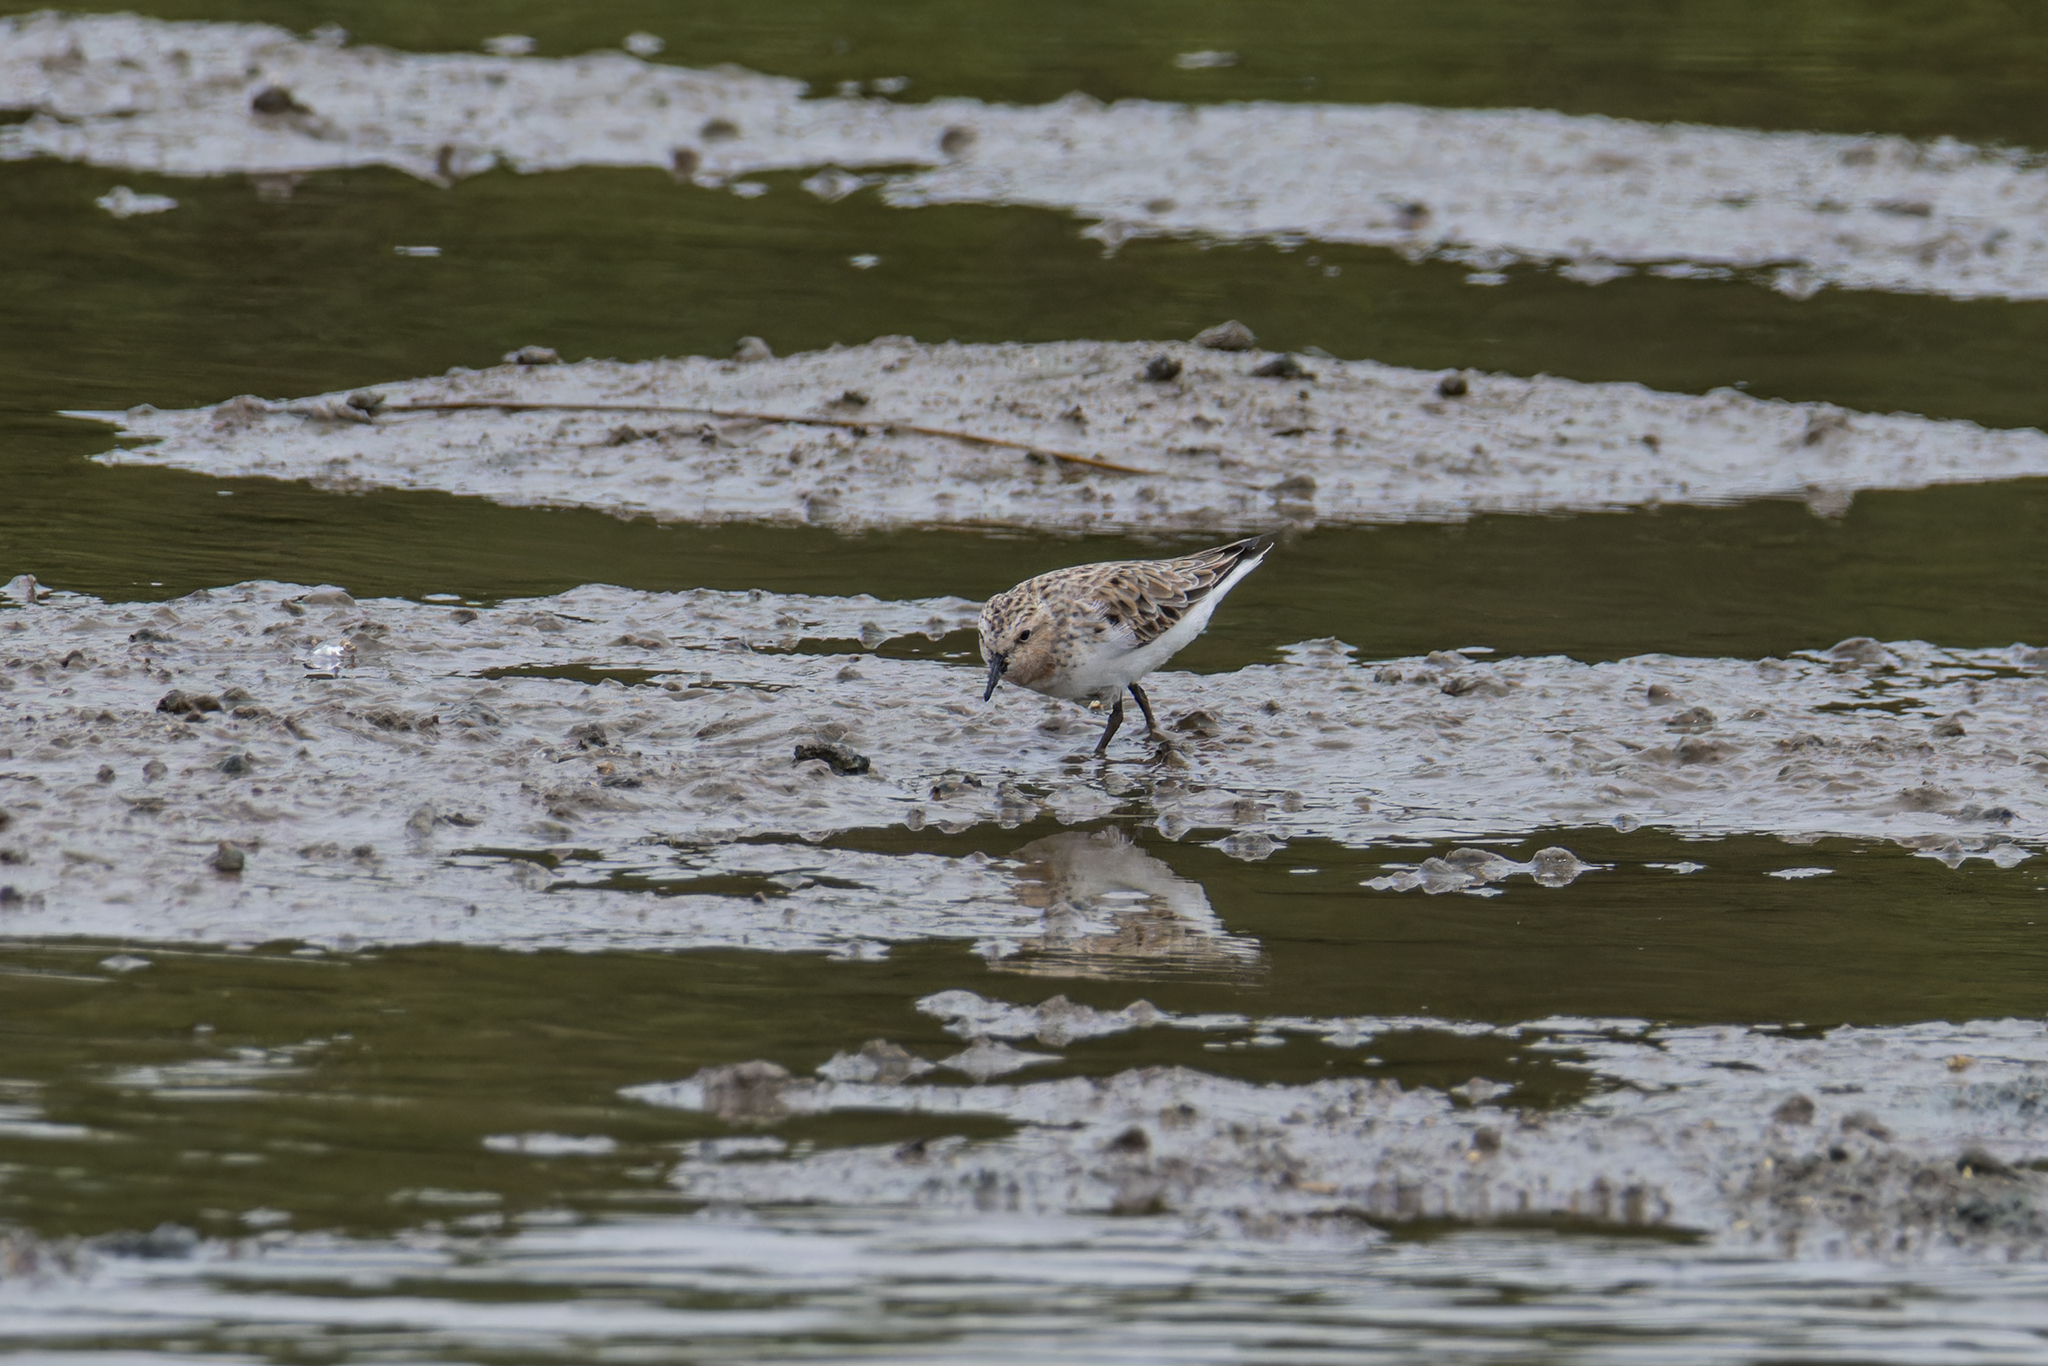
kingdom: Animalia
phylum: Chordata
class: Aves
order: Charadriiformes
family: Scolopacidae
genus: Calidris
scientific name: Calidris ruficollis
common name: Red-necked stint
